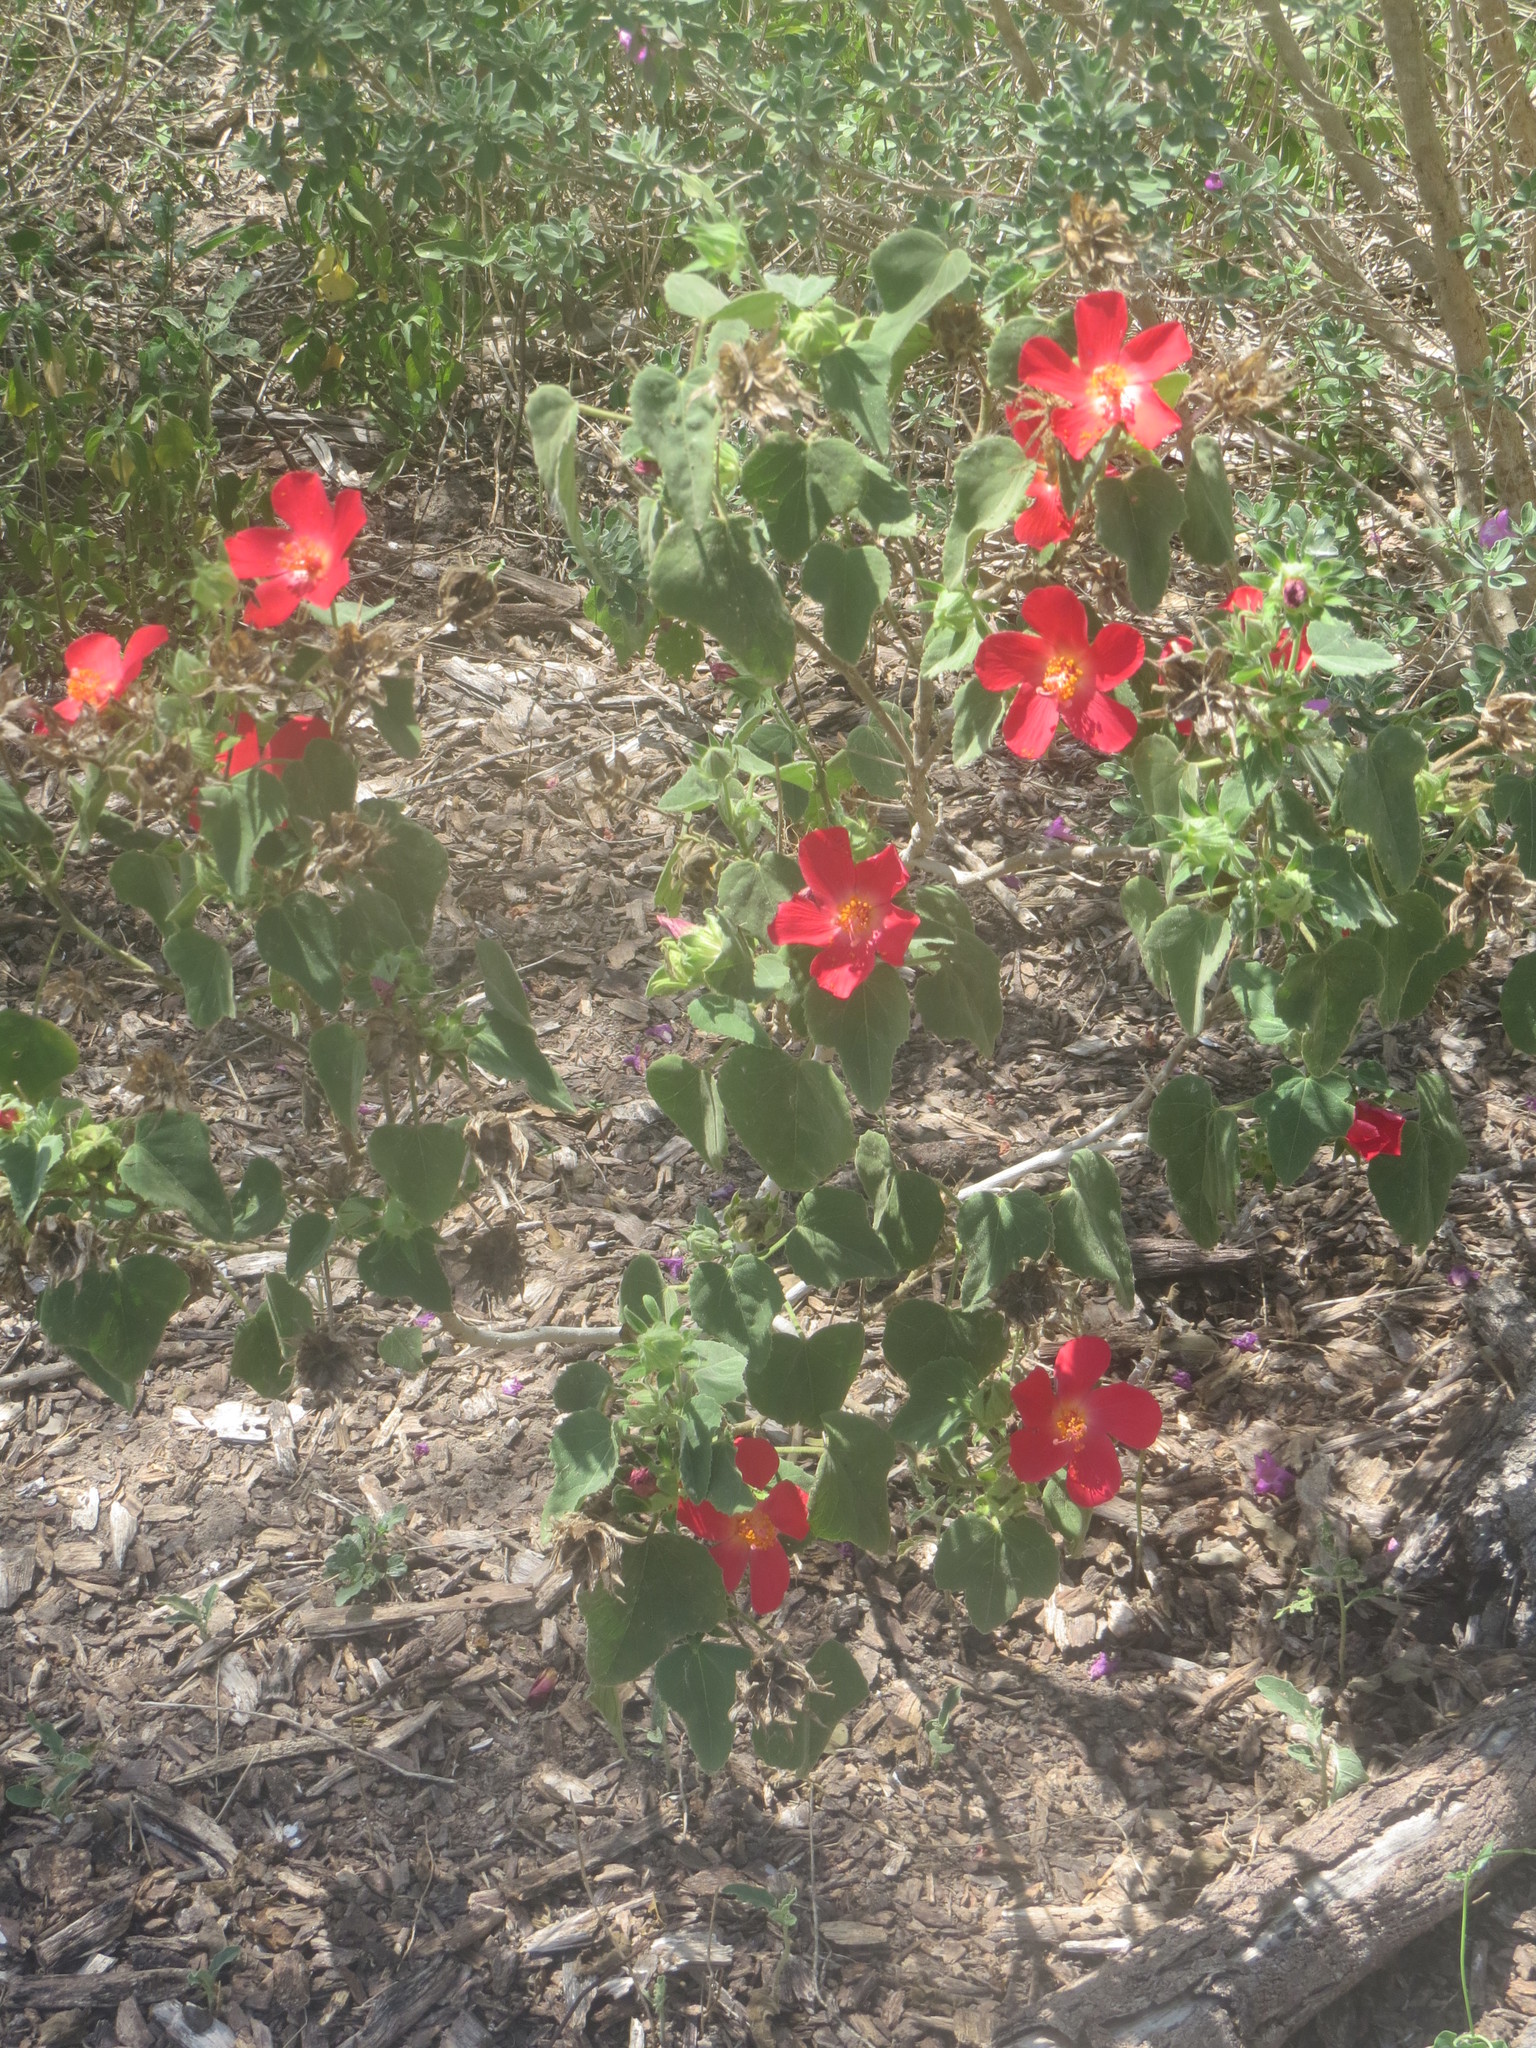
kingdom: Plantae
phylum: Tracheophyta
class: Magnoliopsida
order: Malvales
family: Malvaceae
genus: Hibiscus
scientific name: Hibiscus martianus
